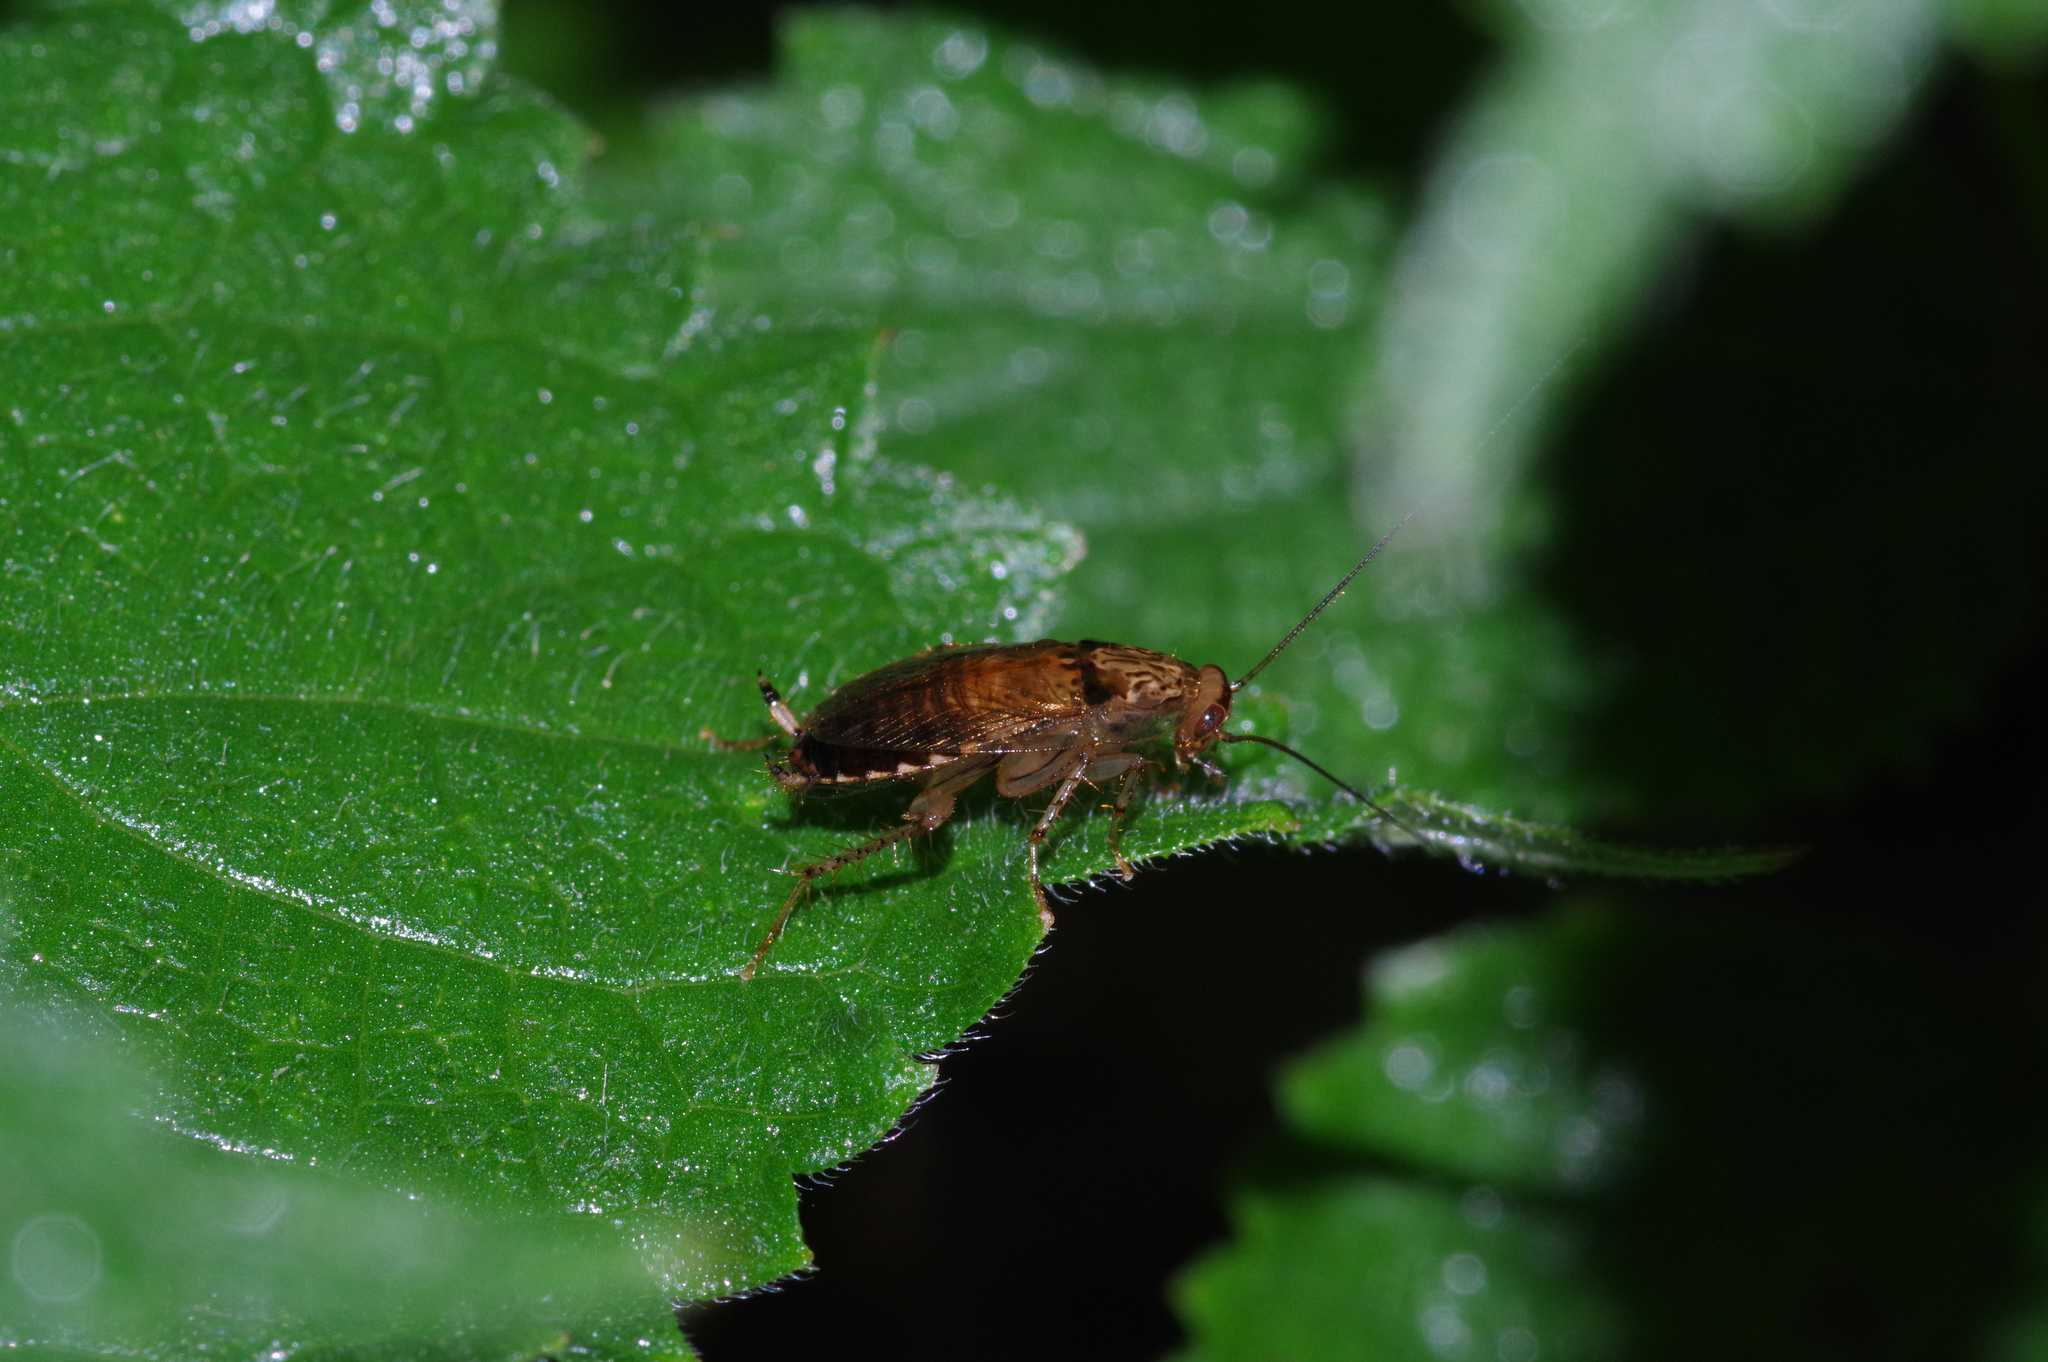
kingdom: Animalia
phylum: Arthropoda
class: Insecta
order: Blattodea
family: Ectobiidae
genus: Margattea
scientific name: Margattea satsumana
